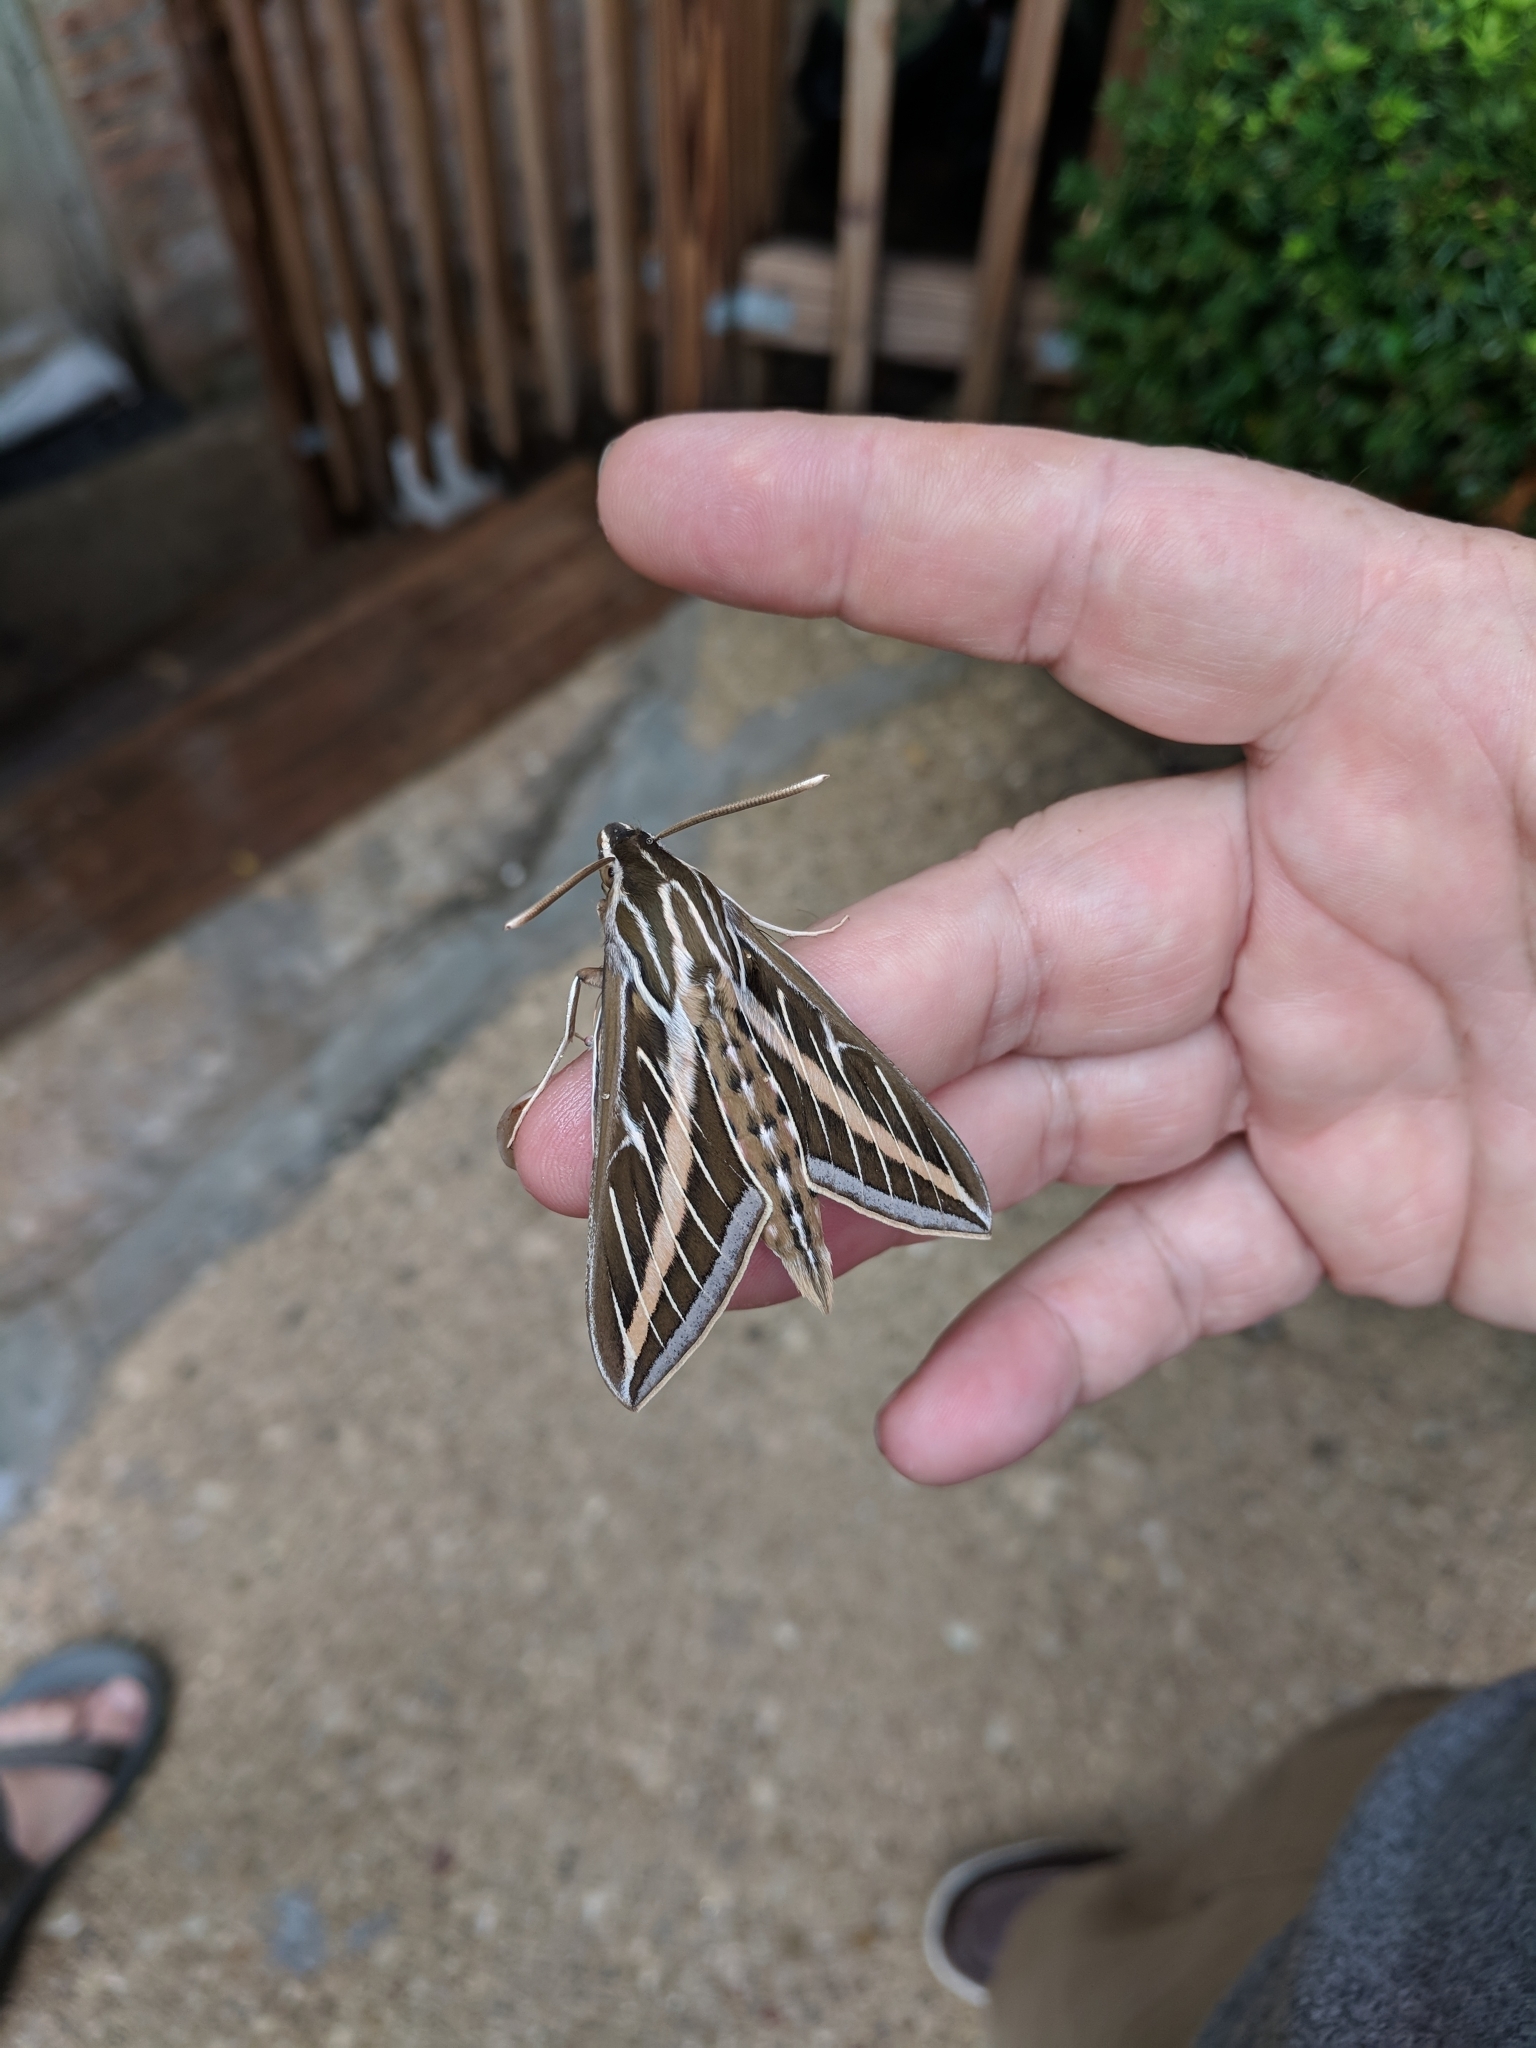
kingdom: Animalia
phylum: Arthropoda
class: Insecta
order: Lepidoptera
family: Sphingidae
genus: Hyles
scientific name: Hyles lineata
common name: White-lined sphinx
